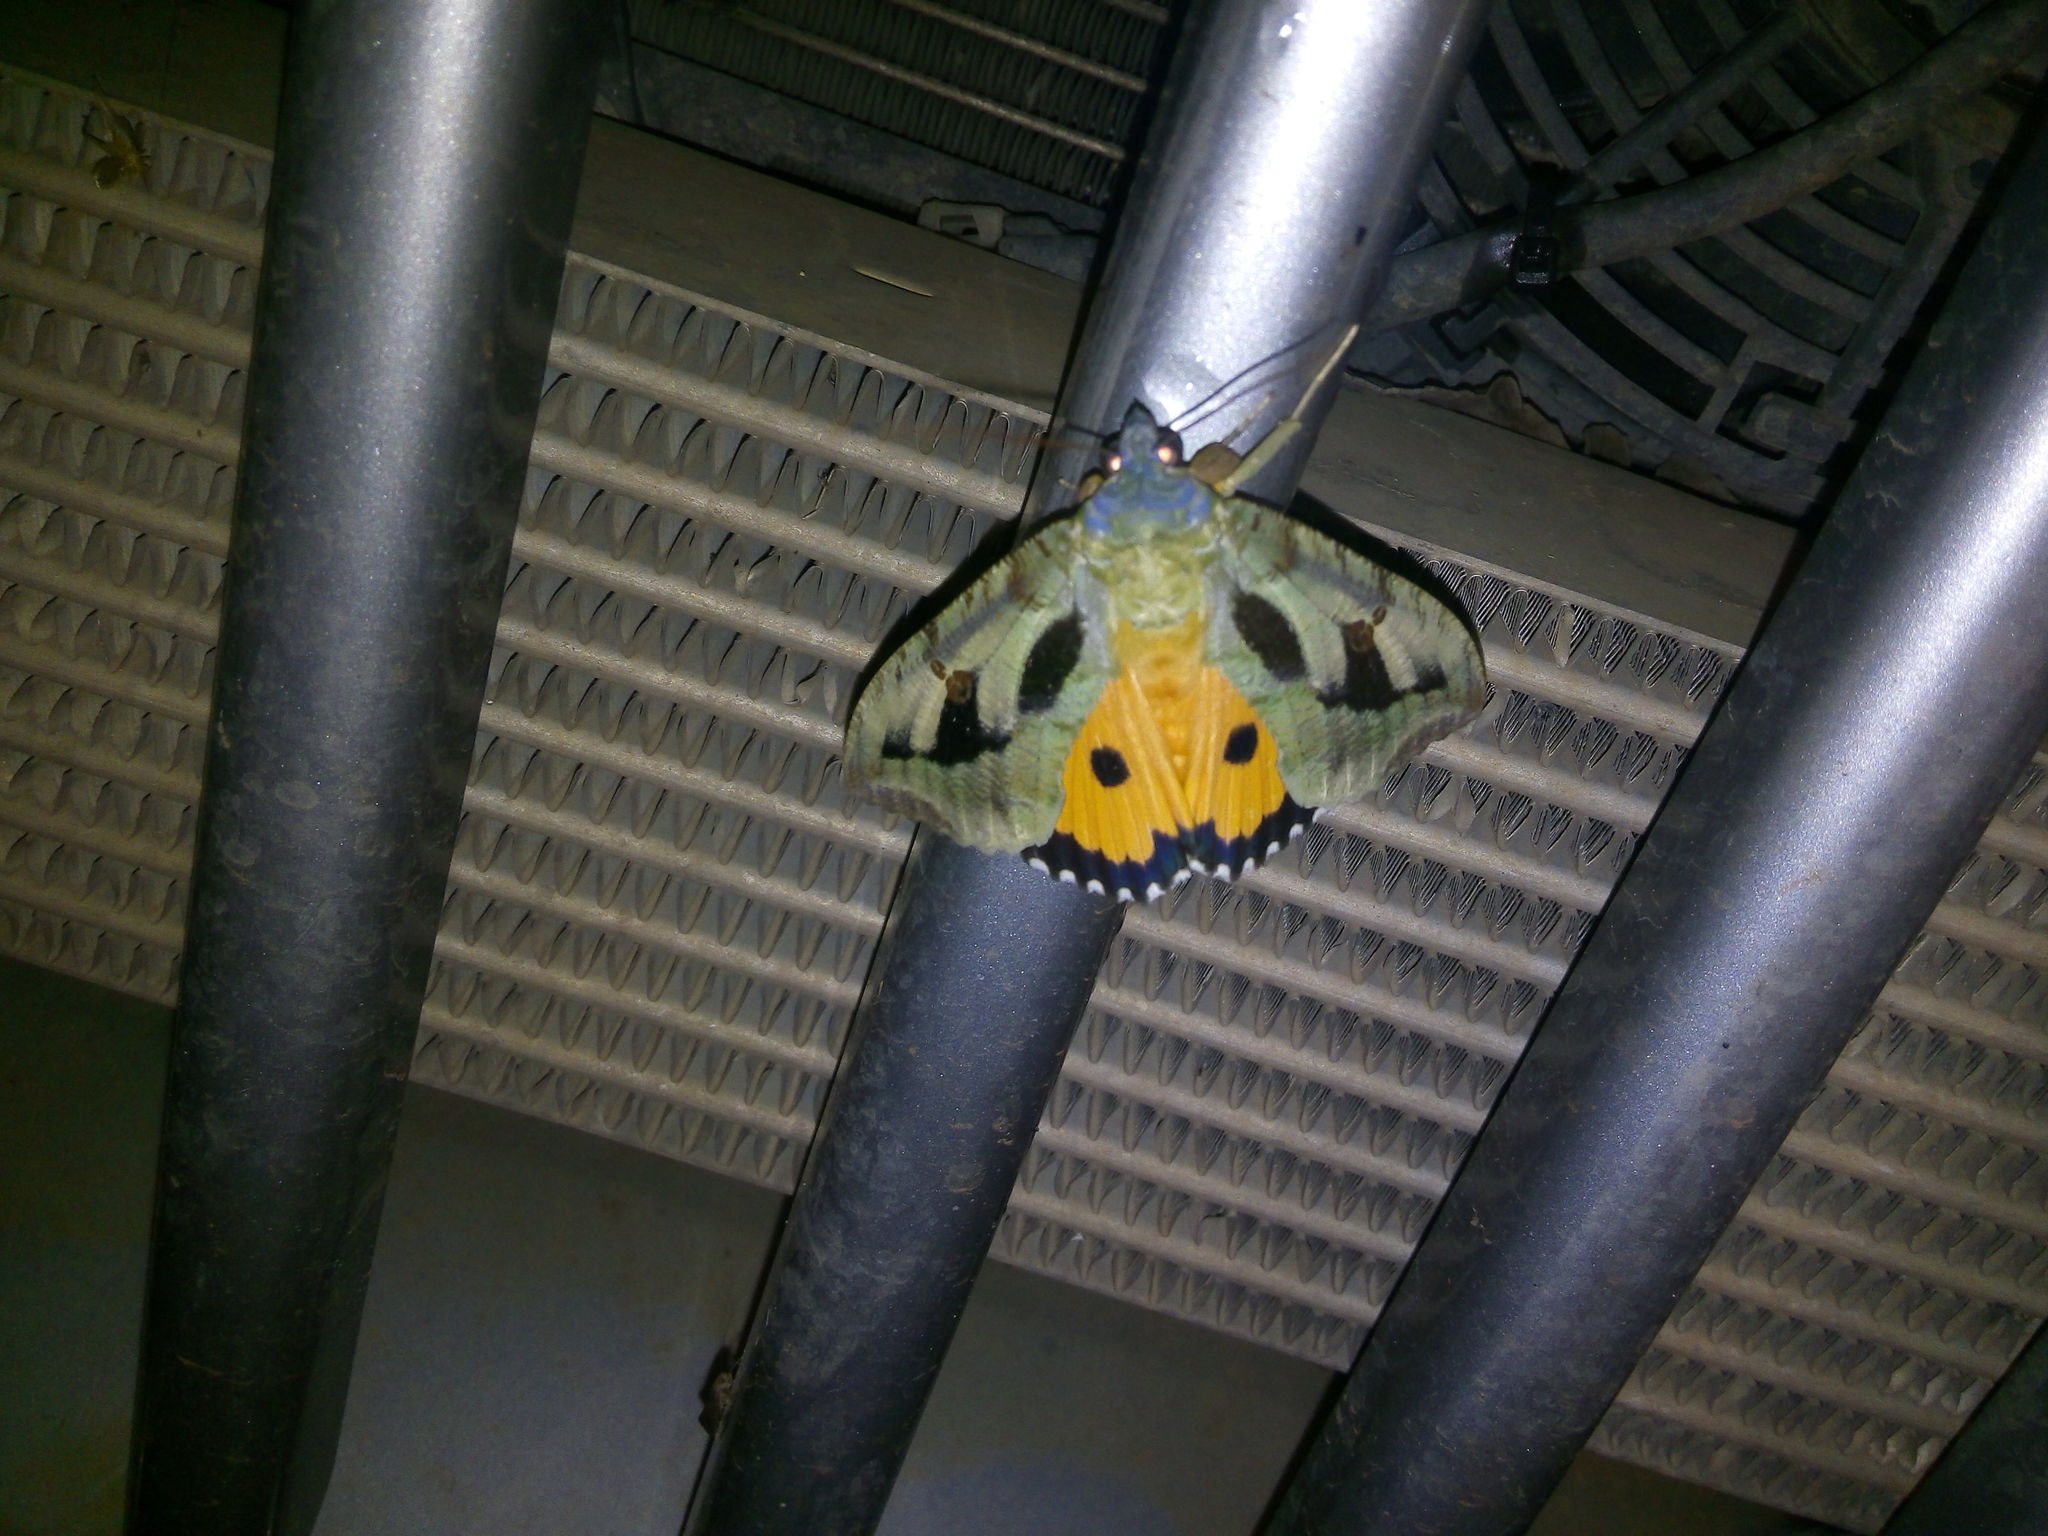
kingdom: Animalia
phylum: Arthropoda
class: Insecta
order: Lepidoptera
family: Erebidae
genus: Eudocima
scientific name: Eudocima materna
